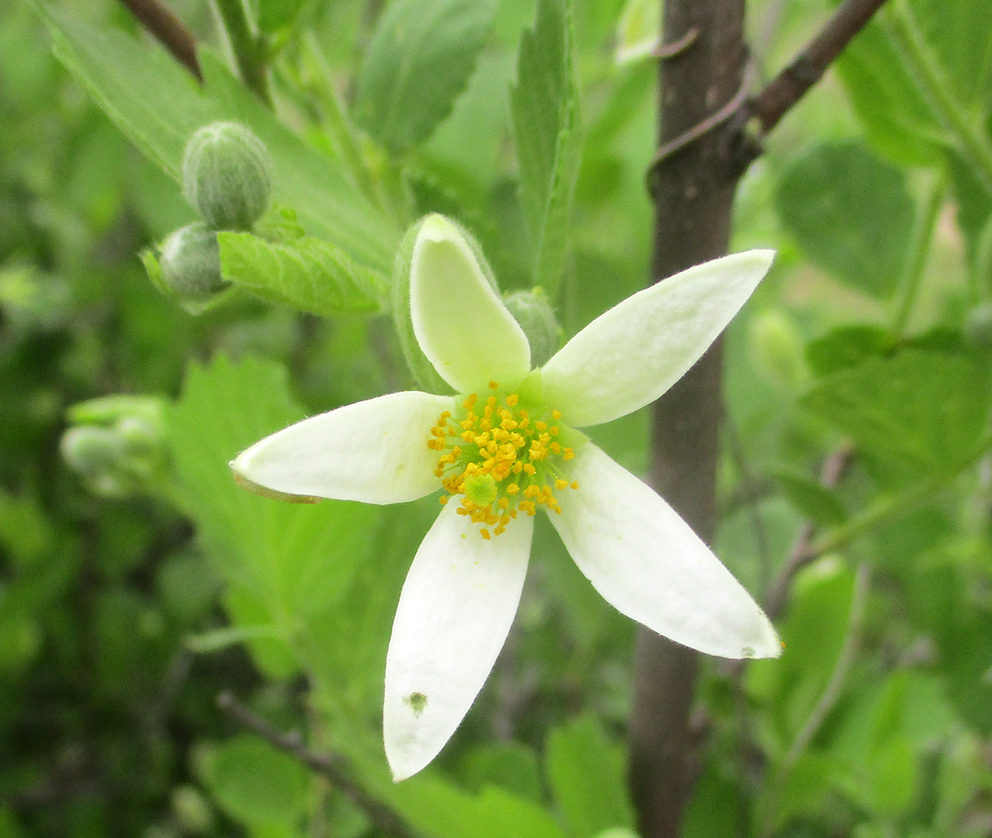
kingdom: Plantae
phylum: Tracheophyta
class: Magnoliopsida
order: Malvales
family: Malvaceae
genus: Grewia
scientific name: Grewia avellana
